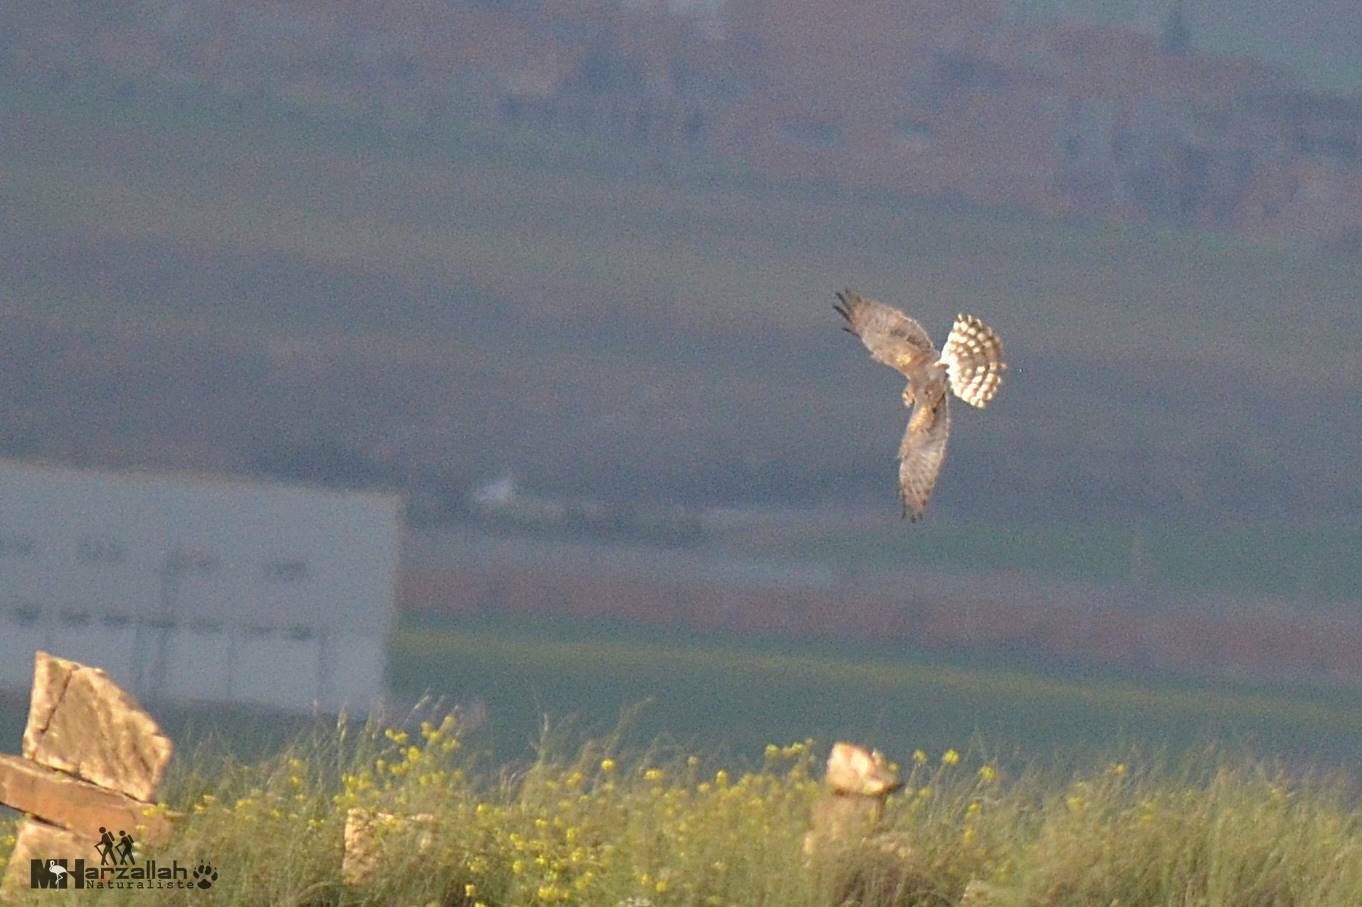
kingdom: Animalia
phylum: Chordata
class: Aves
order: Accipitriformes
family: Accipitridae
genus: Circus
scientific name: Circus pygargus
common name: Montagu's harrier
